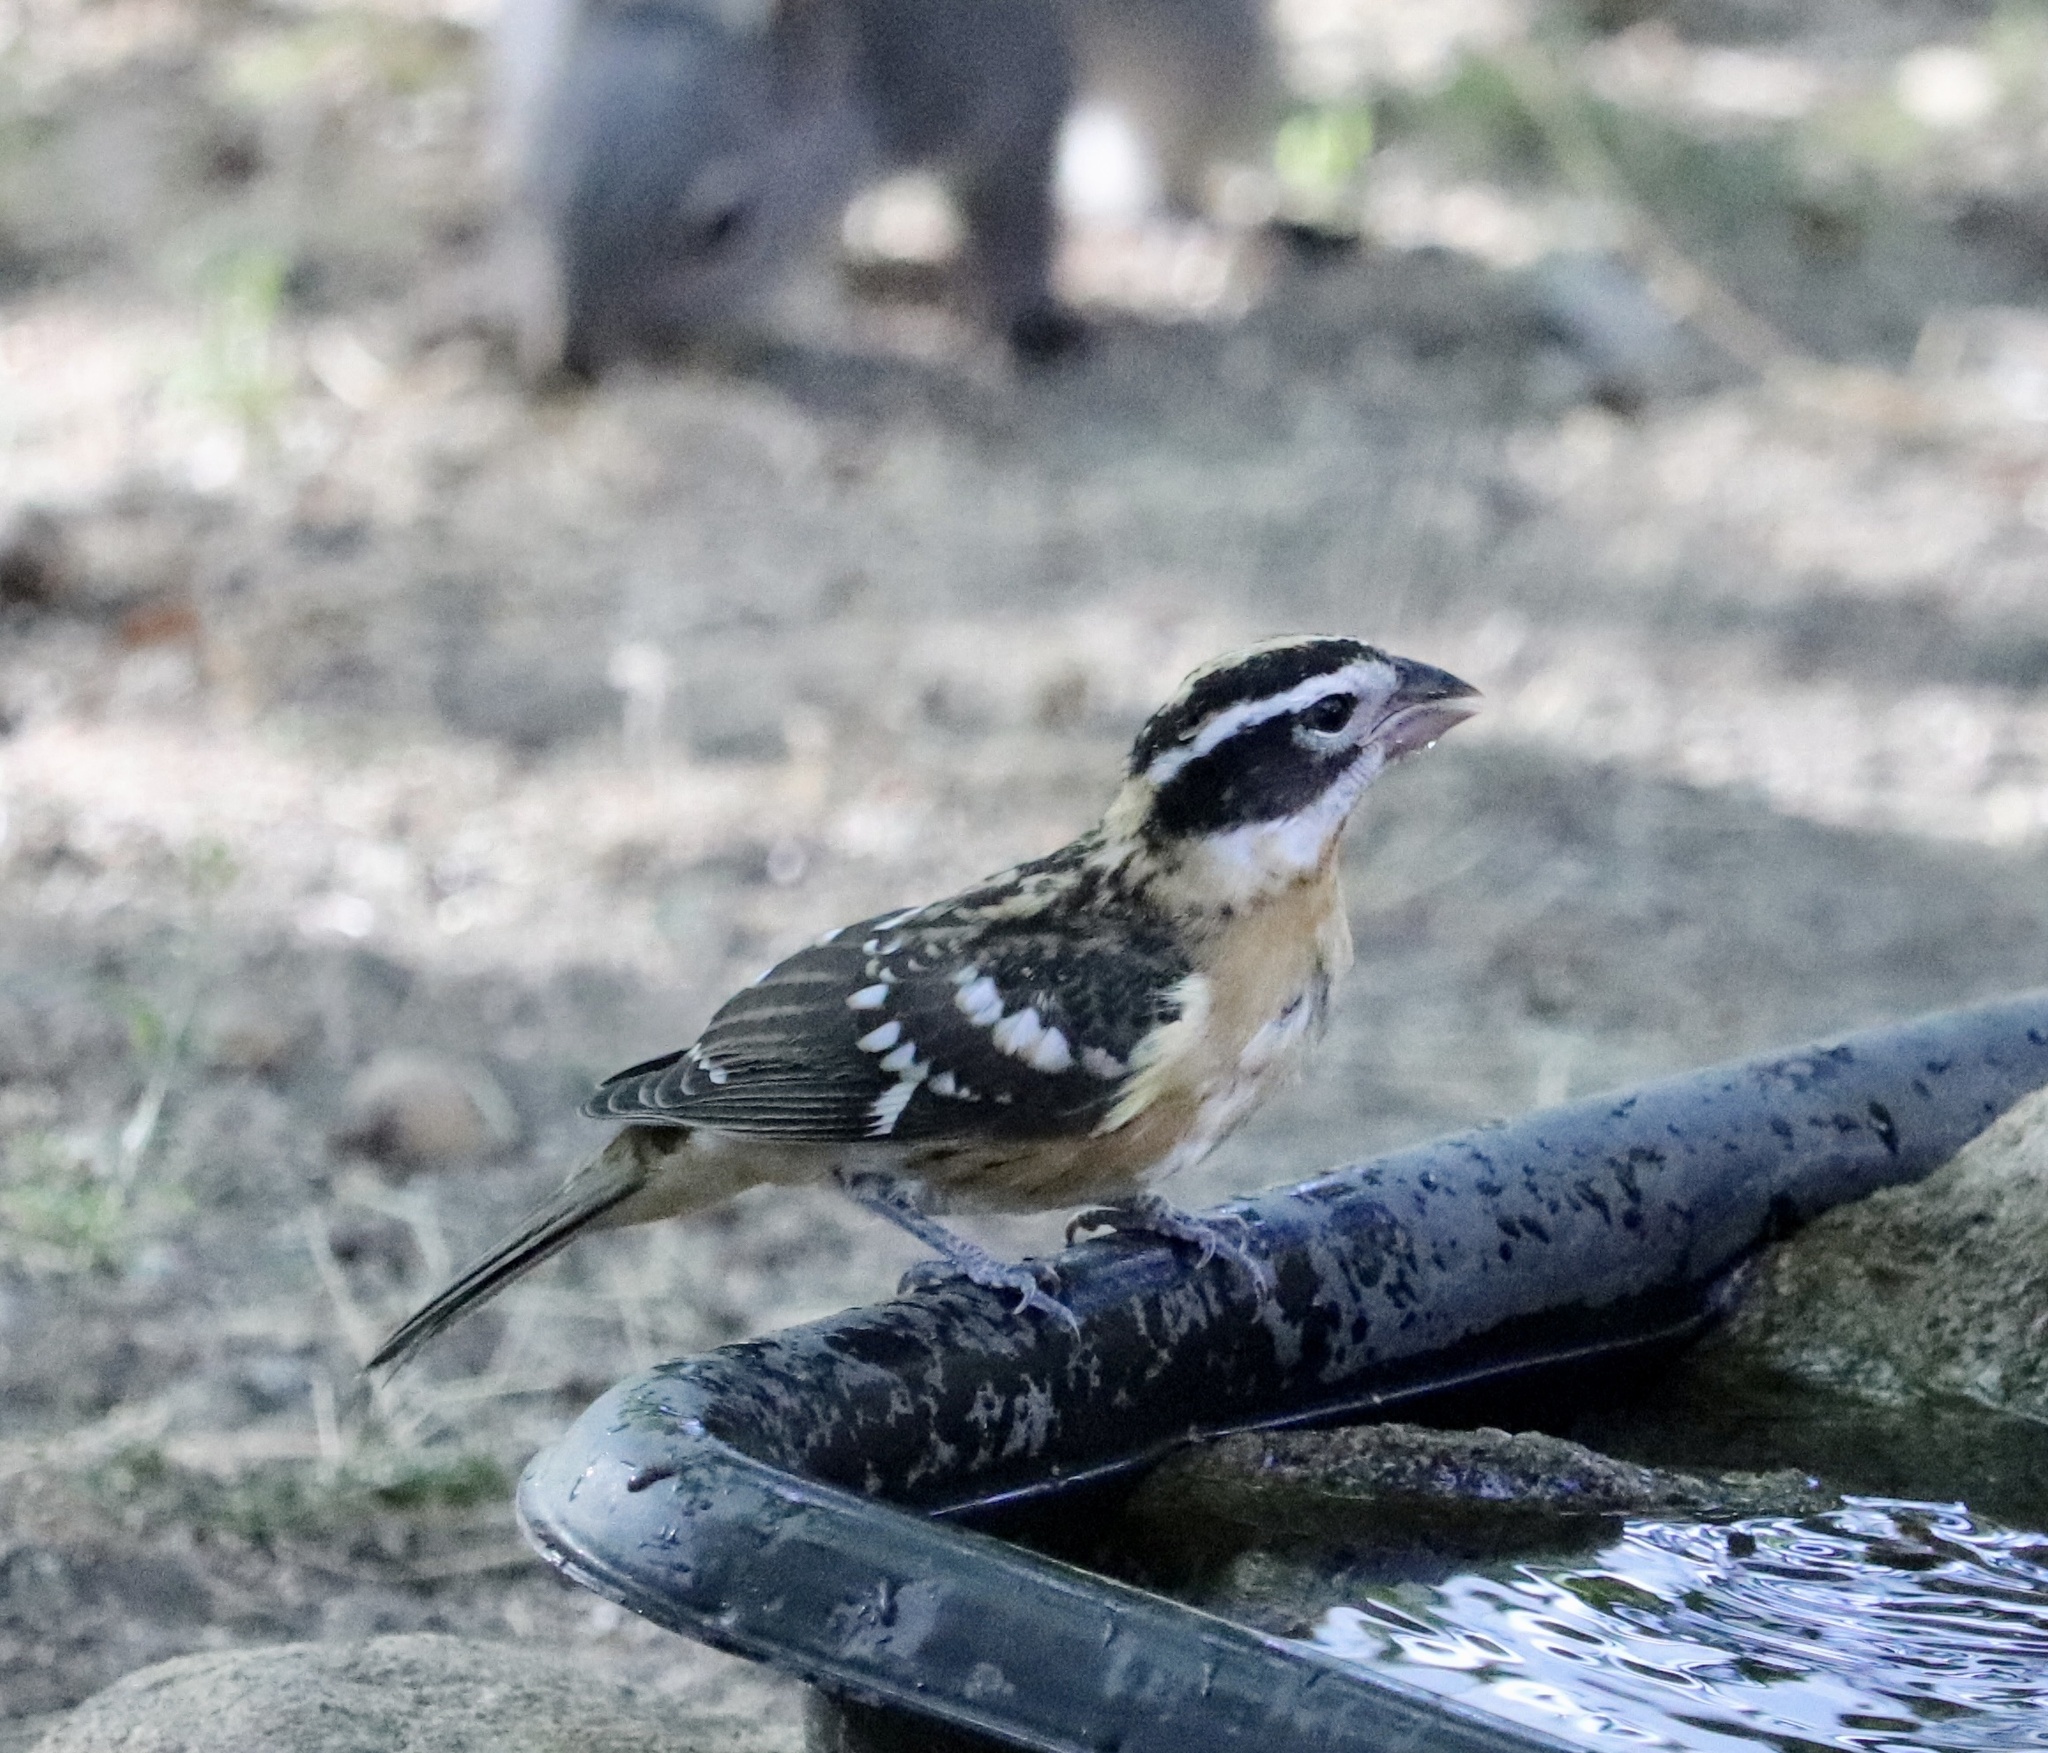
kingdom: Animalia
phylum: Chordata
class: Aves
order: Passeriformes
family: Cardinalidae
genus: Pheucticus
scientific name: Pheucticus melanocephalus
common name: Black-headed grosbeak
